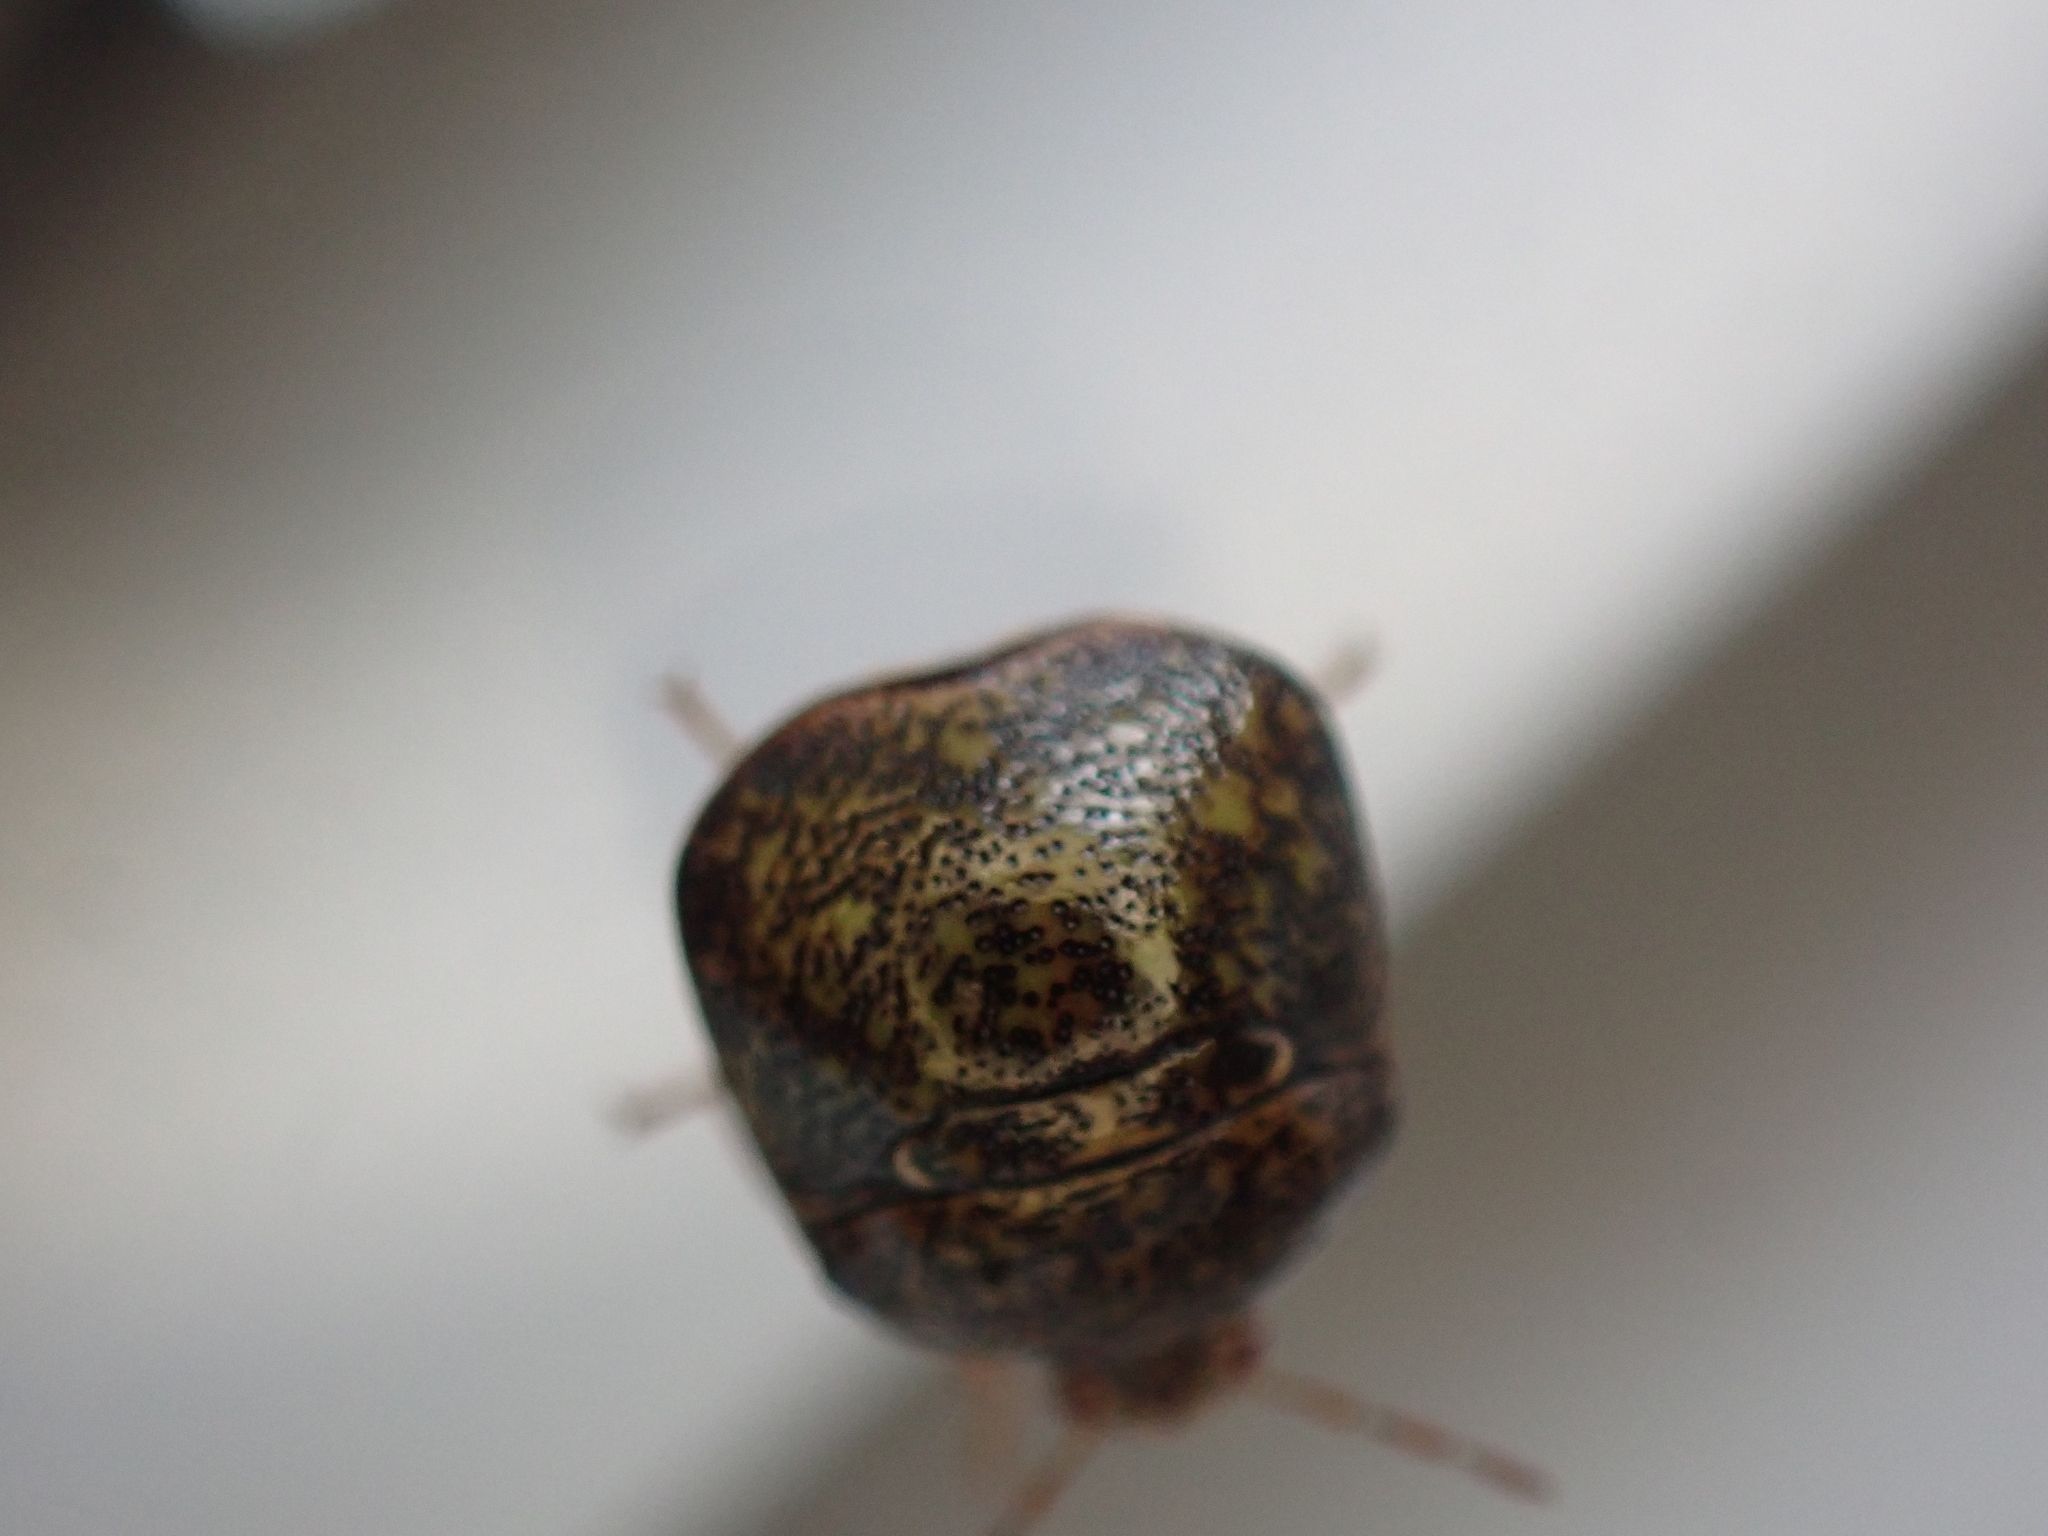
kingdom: Animalia
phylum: Arthropoda
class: Insecta
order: Hemiptera
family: Plataspidae
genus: Megacopta
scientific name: Megacopta cribraria
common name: Bean plataspid
